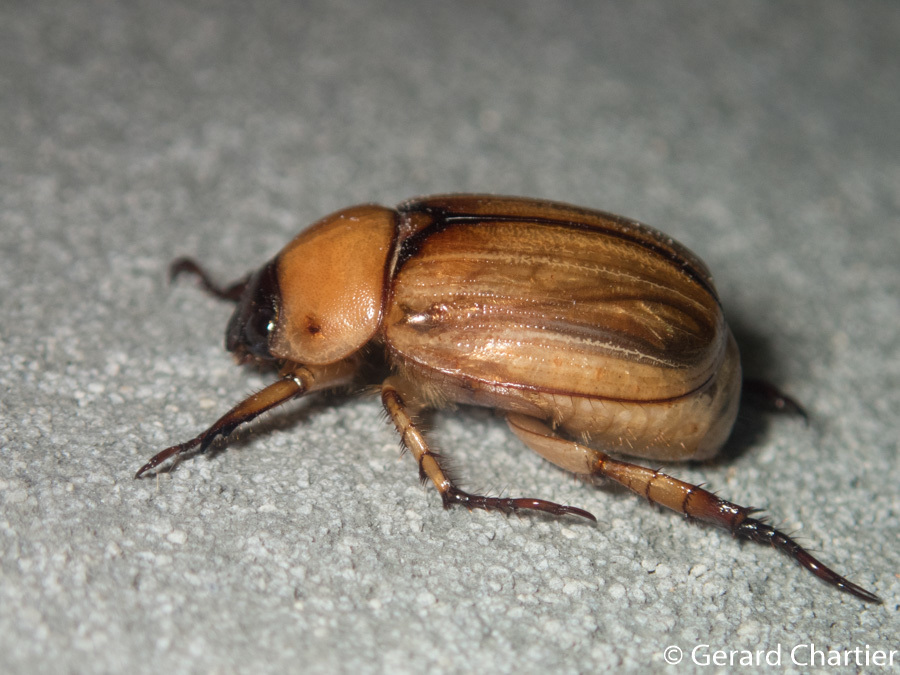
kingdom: Animalia
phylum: Arthropoda
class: Insecta
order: Coleoptera
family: Scarabaeidae
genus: Anomala
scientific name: Anomala pallida
